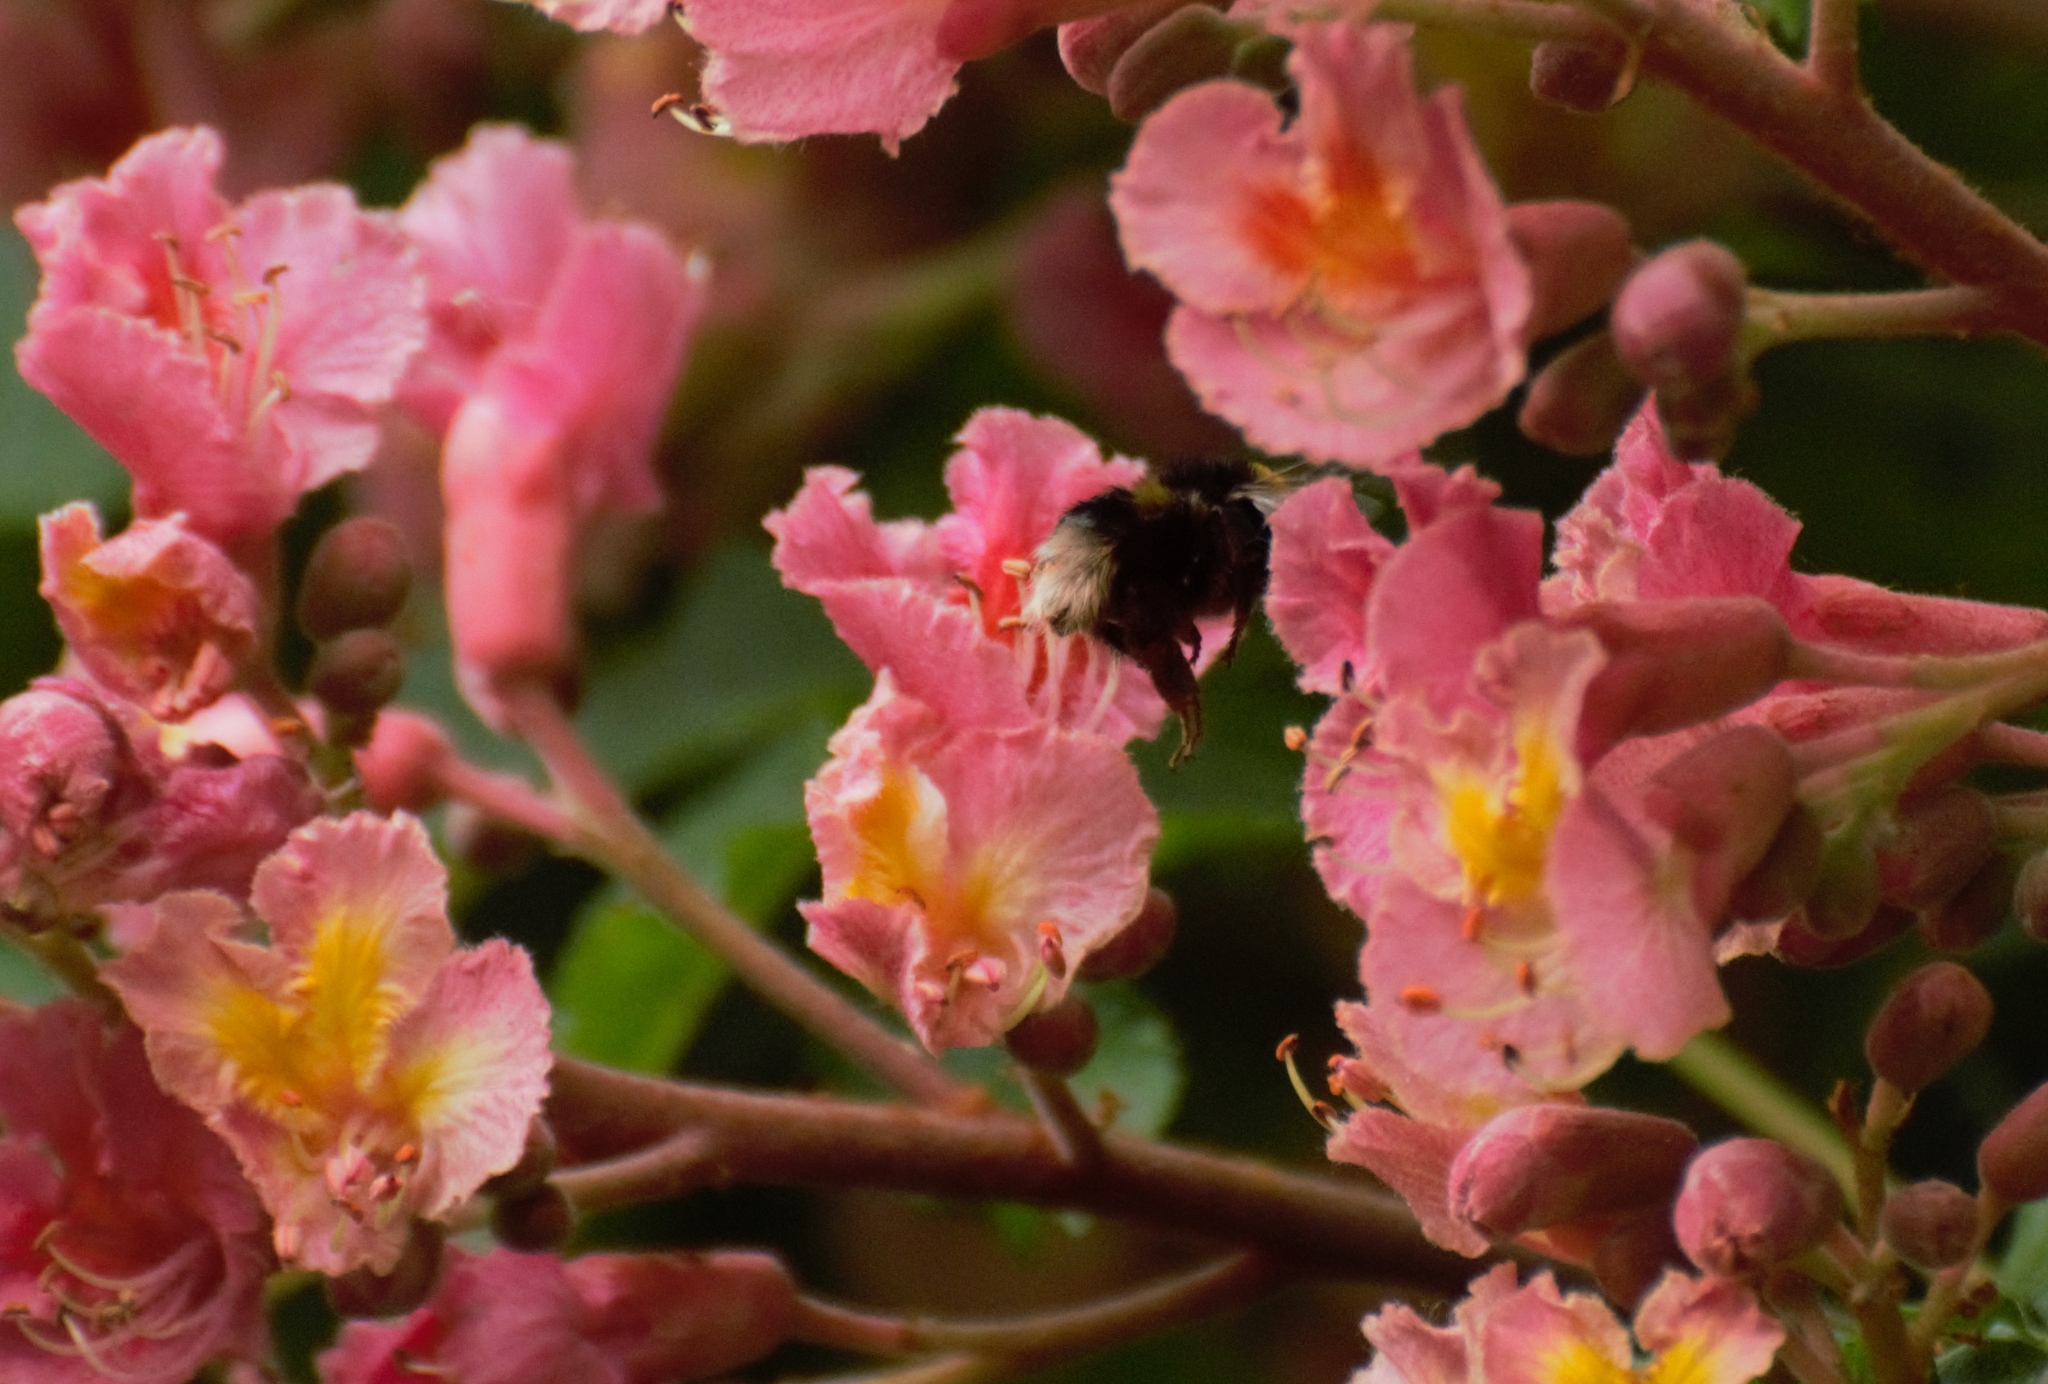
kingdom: Animalia
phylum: Arthropoda
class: Insecta
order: Hymenoptera
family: Apidae
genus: Bombus
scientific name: Bombus terrestris
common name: Buff-tailed bumblebee
